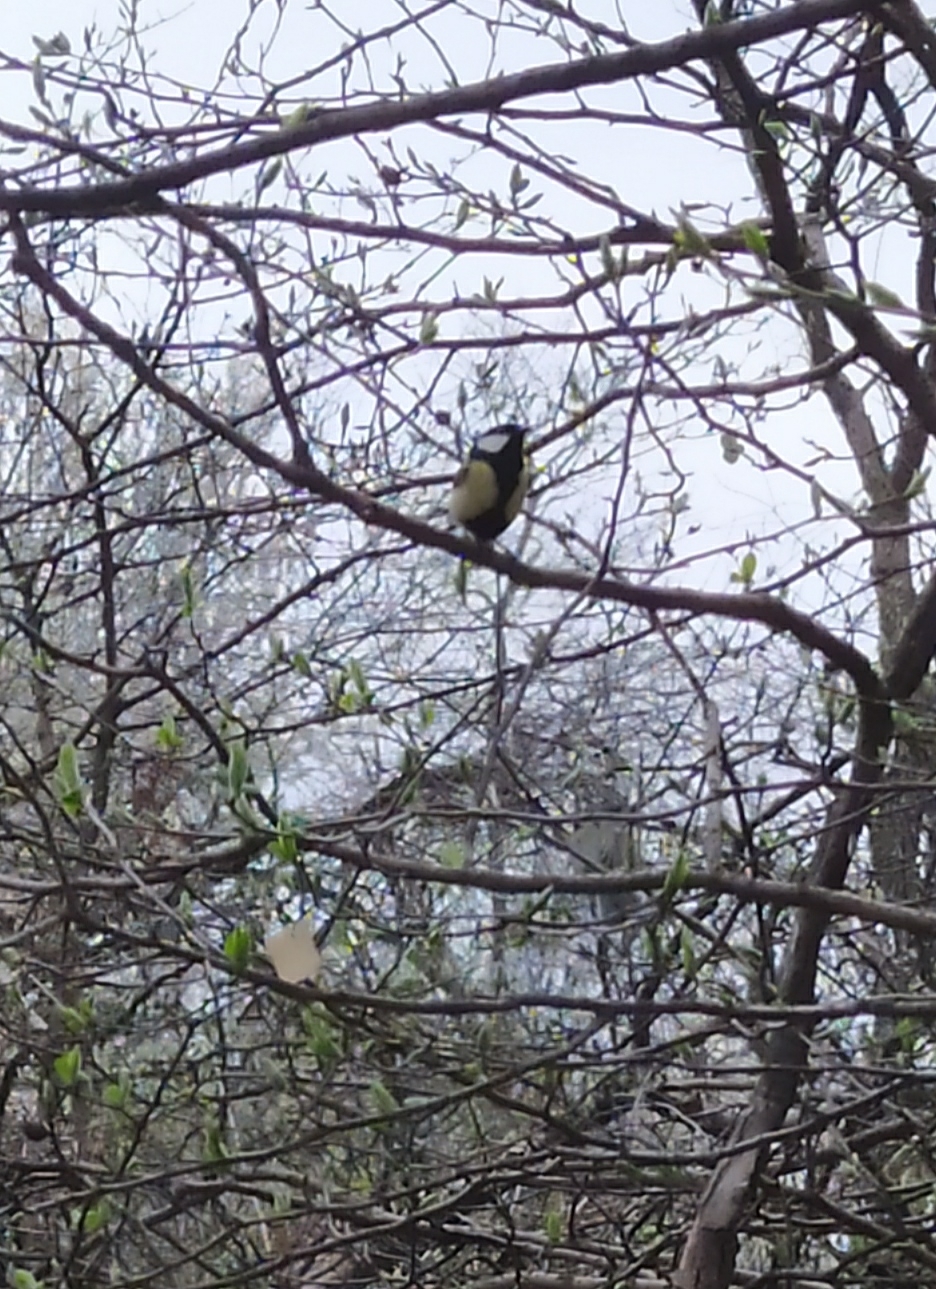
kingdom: Animalia
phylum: Chordata
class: Aves
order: Passeriformes
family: Paridae
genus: Parus
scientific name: Parus major
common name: Great tit
